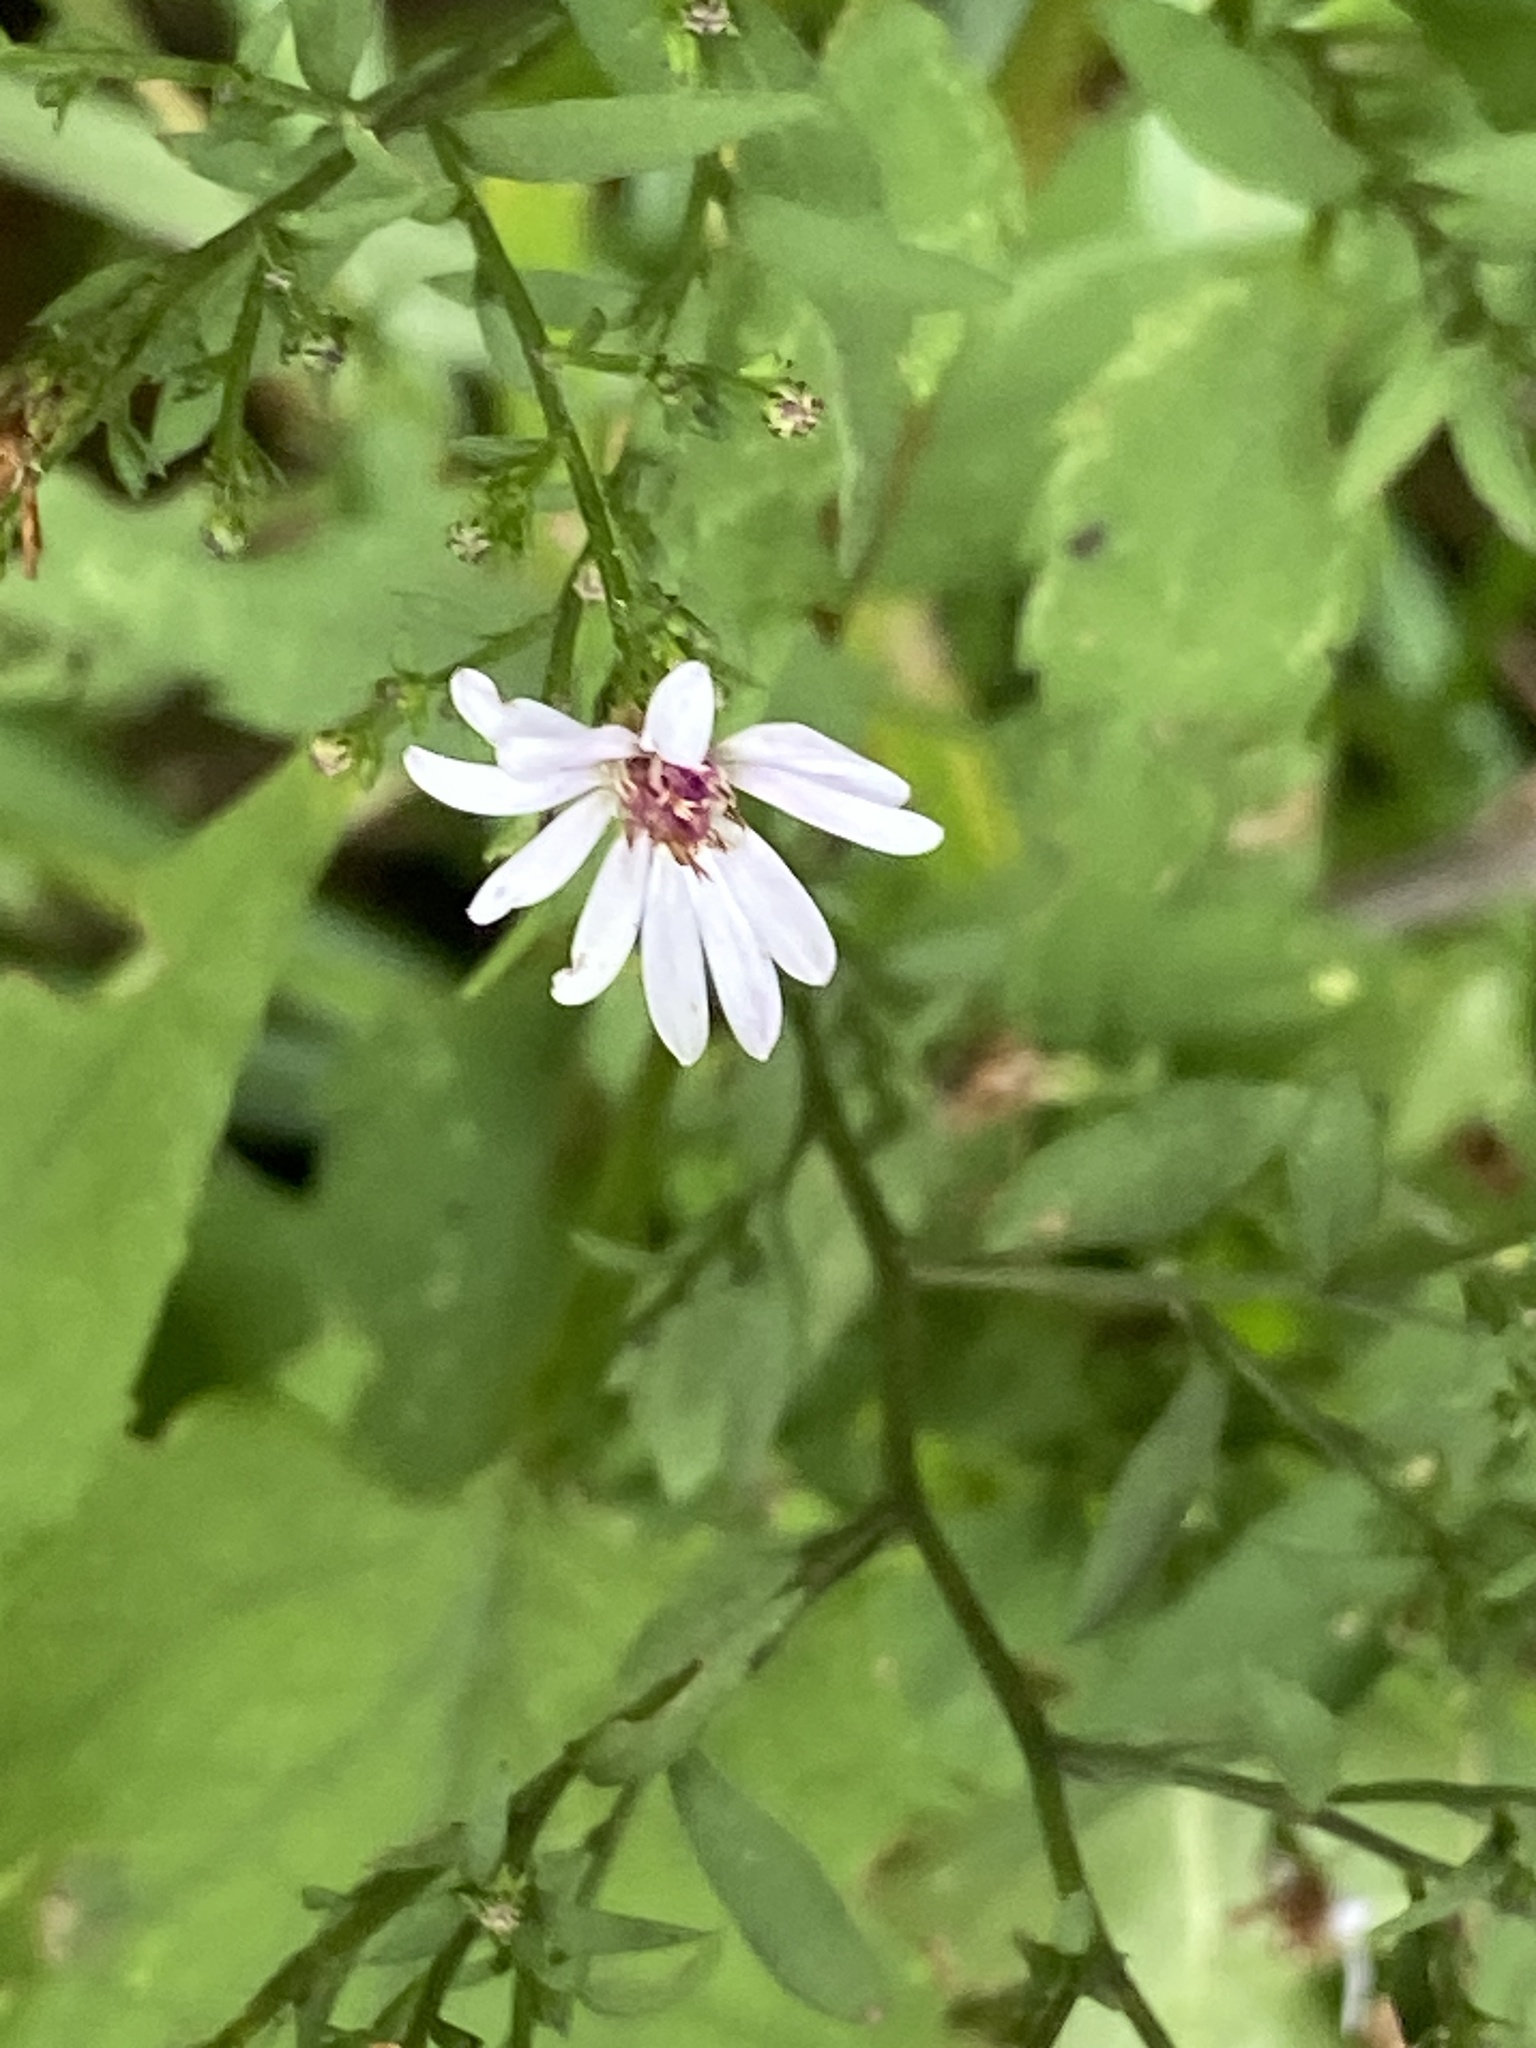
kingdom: Plantae
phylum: Tracheophyta
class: Magnoliopsida
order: Asterales
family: Asteraceae
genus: Symphyotrichum
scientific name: Symphyotrichum cordifolium
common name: Beeweed
